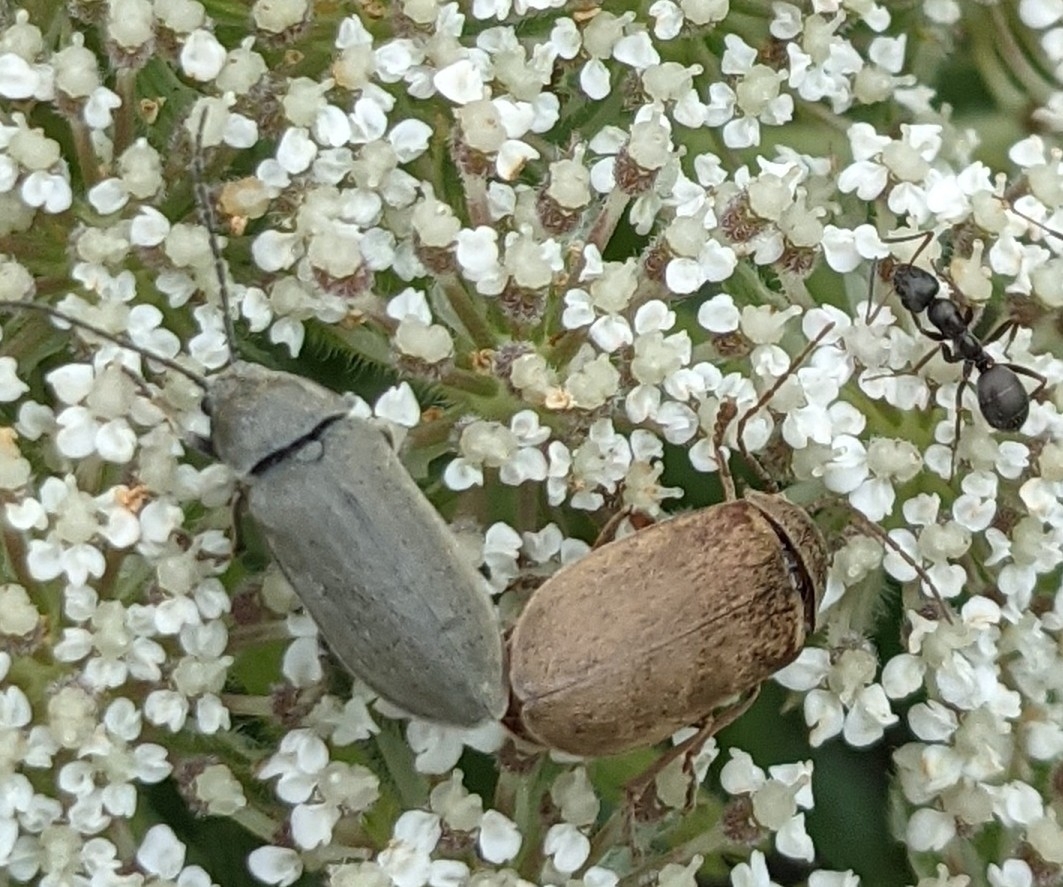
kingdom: Animalia
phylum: Arthropoda
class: Insecta
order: Coleoptera
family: Dascillidae
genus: Dascillus
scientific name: Dascillus cervinus
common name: Orchid beetle
